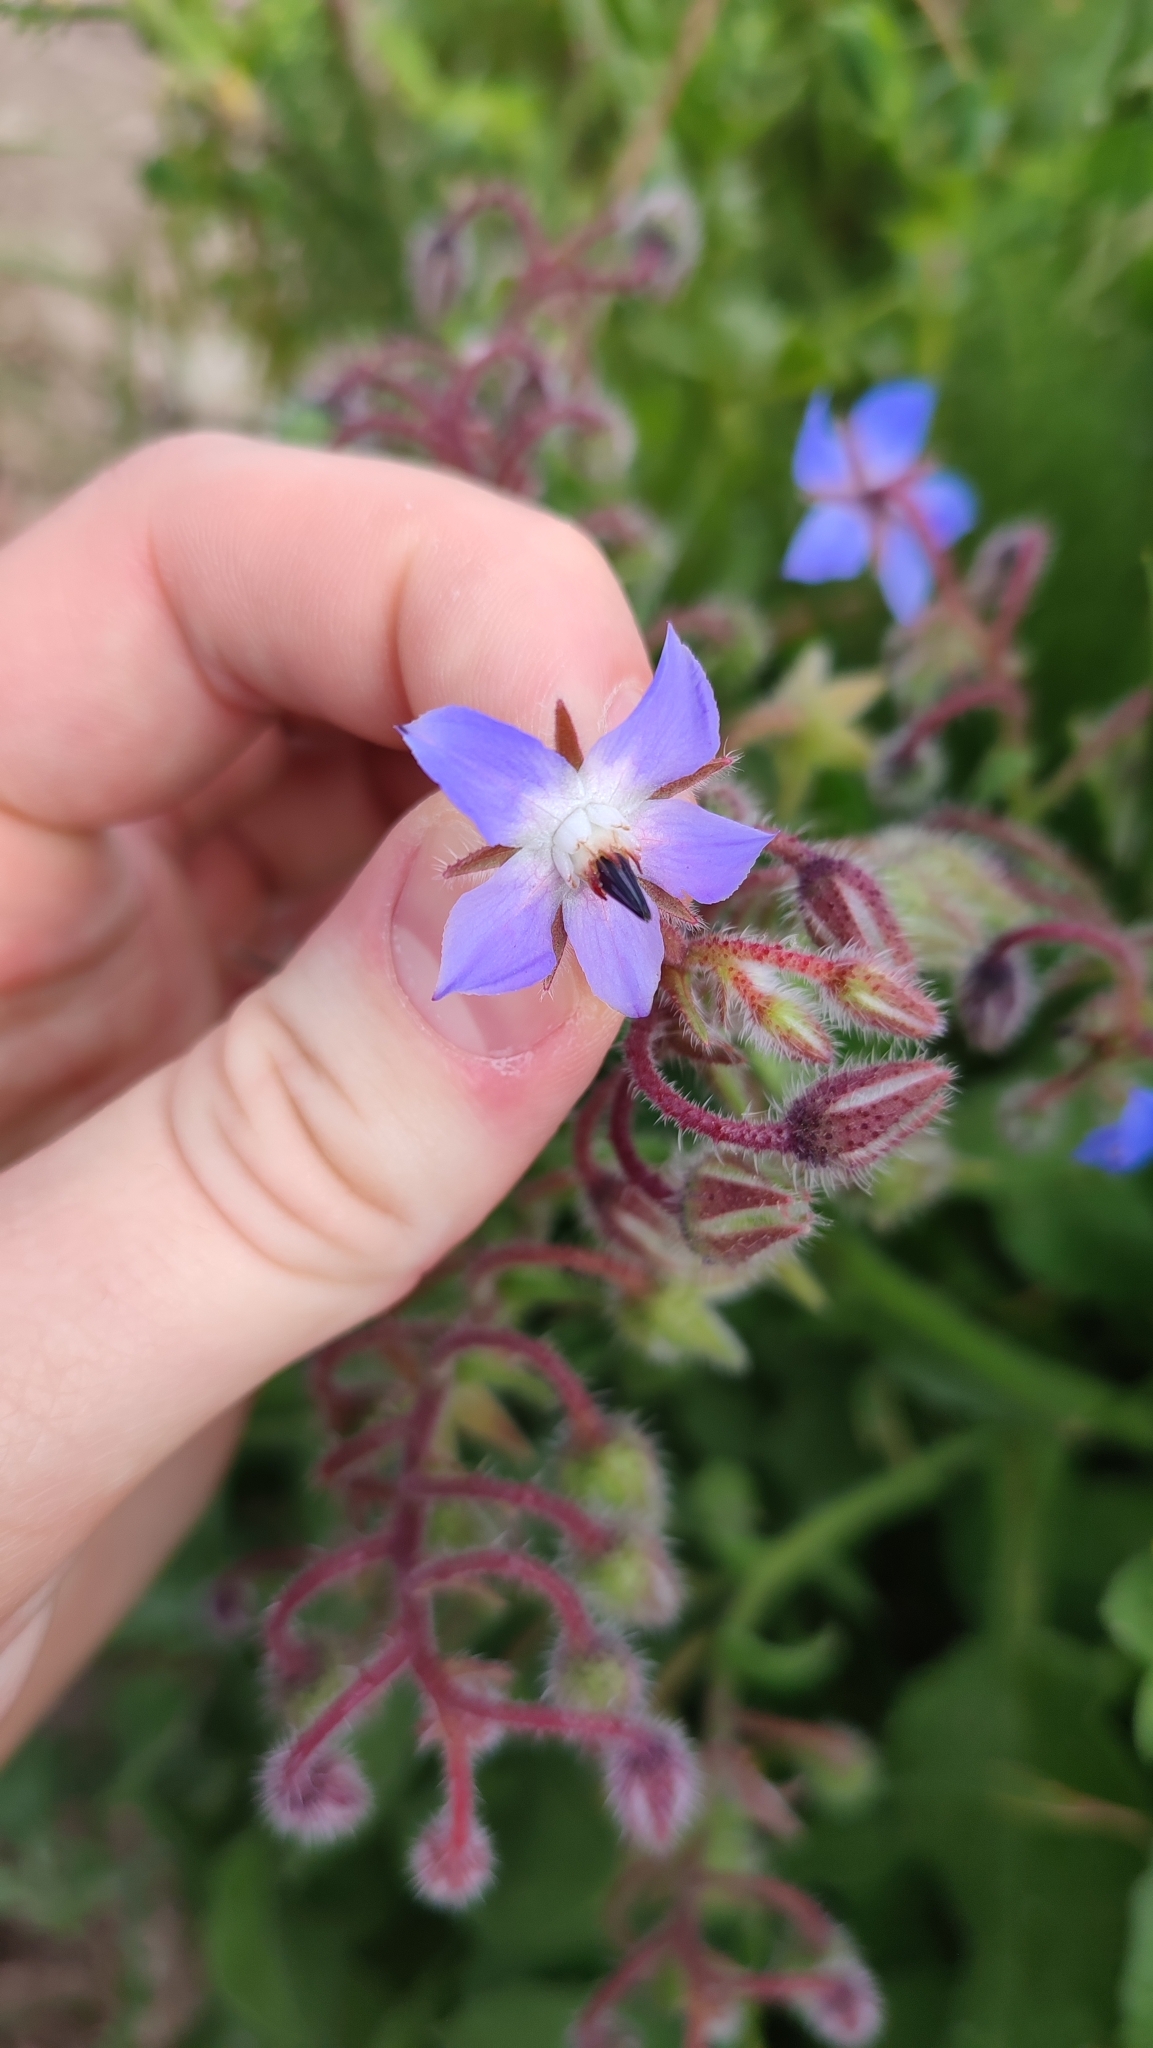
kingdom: Plantae
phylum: Tracheophyta
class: Magnoliopsida
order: Boraginales
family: Boraginaceae
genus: Borago
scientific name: Borago officinalis
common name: Borage
